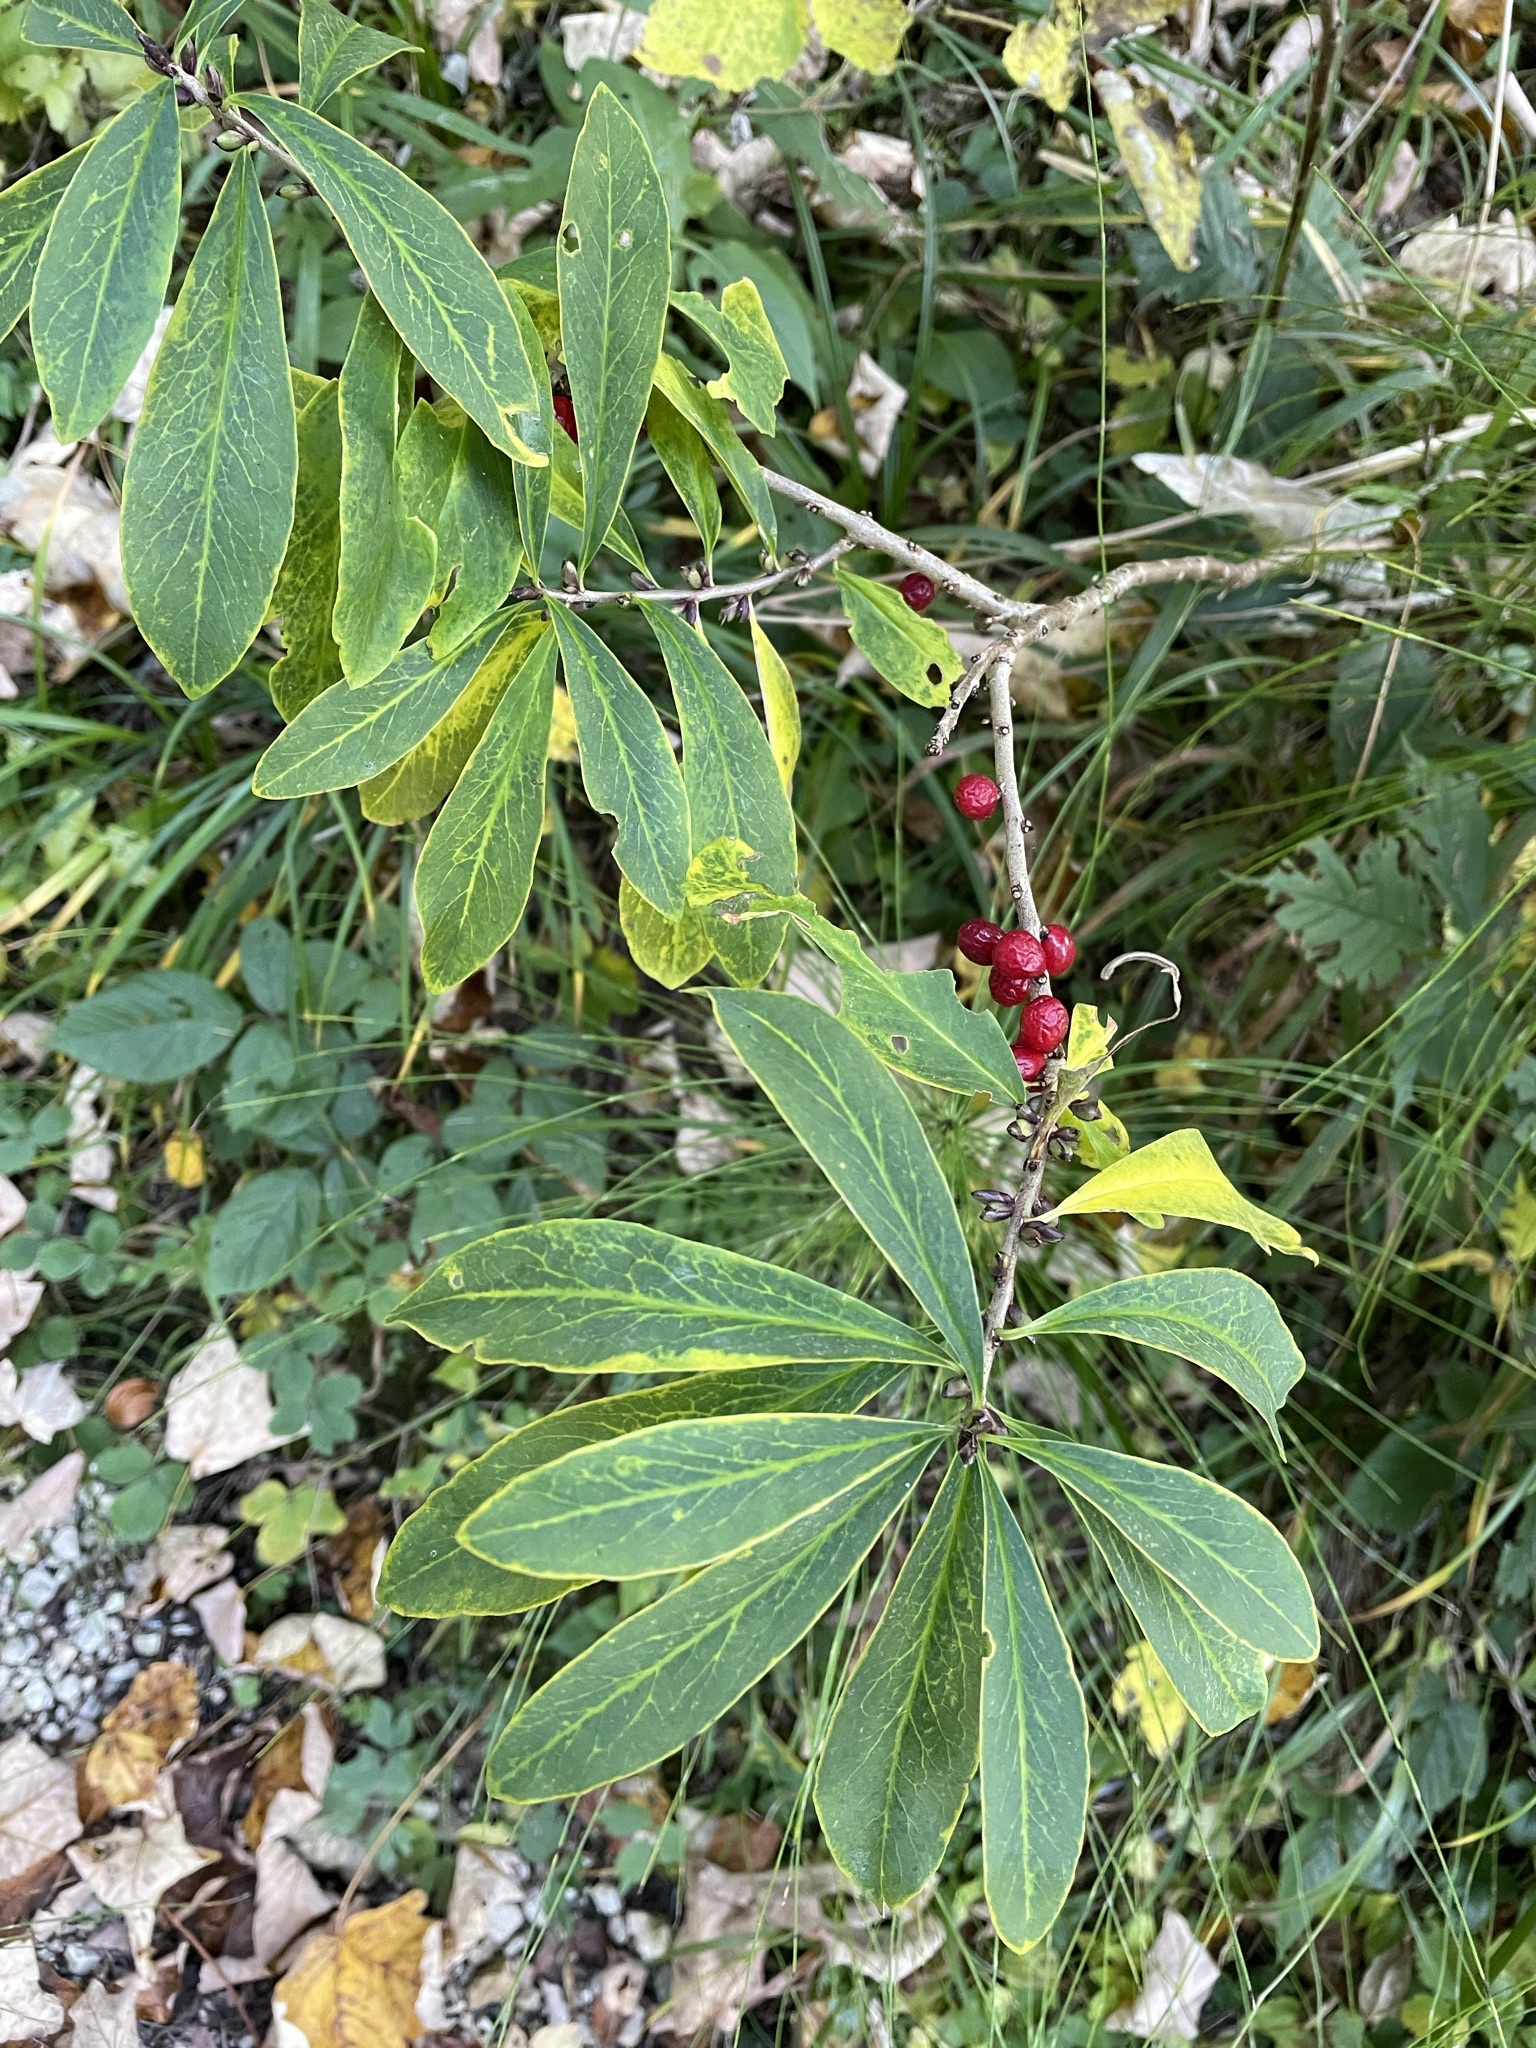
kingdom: Plantae
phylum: Tracheophyta
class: Magnoliopsida
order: Malvales
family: Thymelaeaceae
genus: Daphne
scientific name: Daphne mezereum
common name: Mezereon
